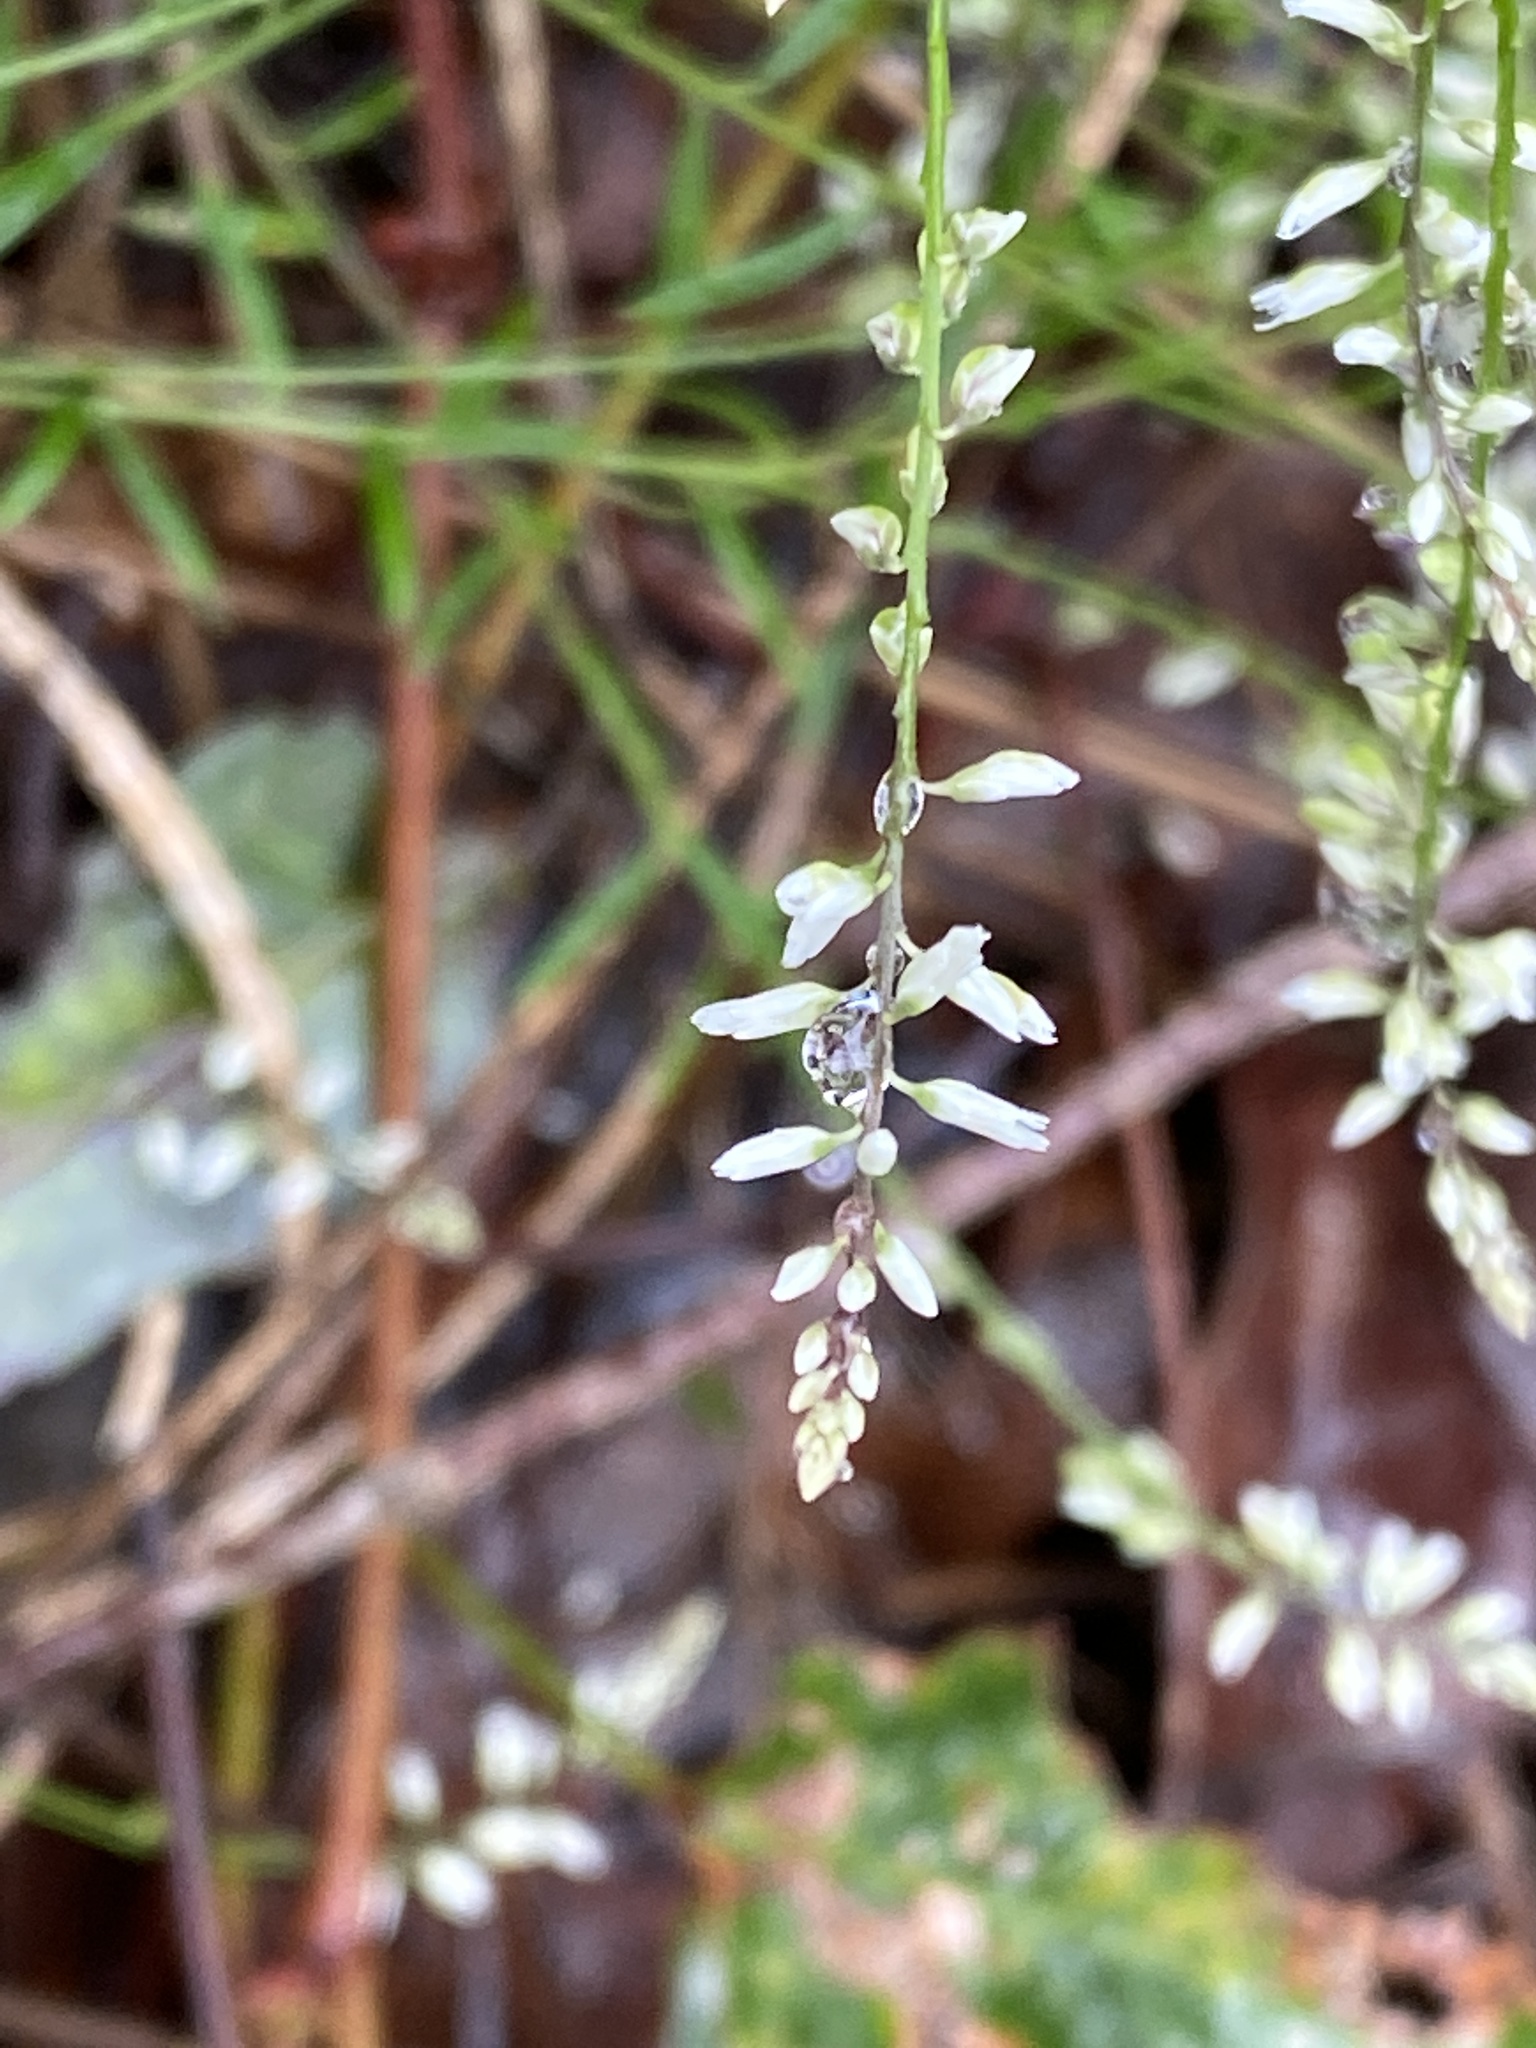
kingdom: Plantae
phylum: Tracheophyta
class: Magnoliopsida
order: Fabales
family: Polygalaceae
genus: Polygala
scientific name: Polygala paniculata
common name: Orosne
